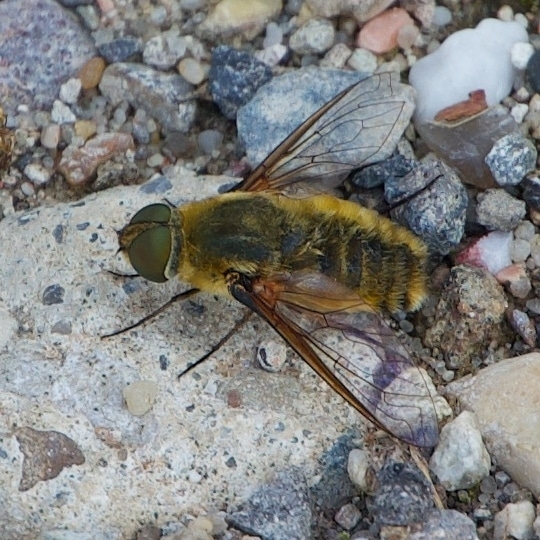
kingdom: Animalia
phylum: Arthropoda
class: Insecta
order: Diptera
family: Bombyliidae
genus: Villa
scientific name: Villa hottentotta
